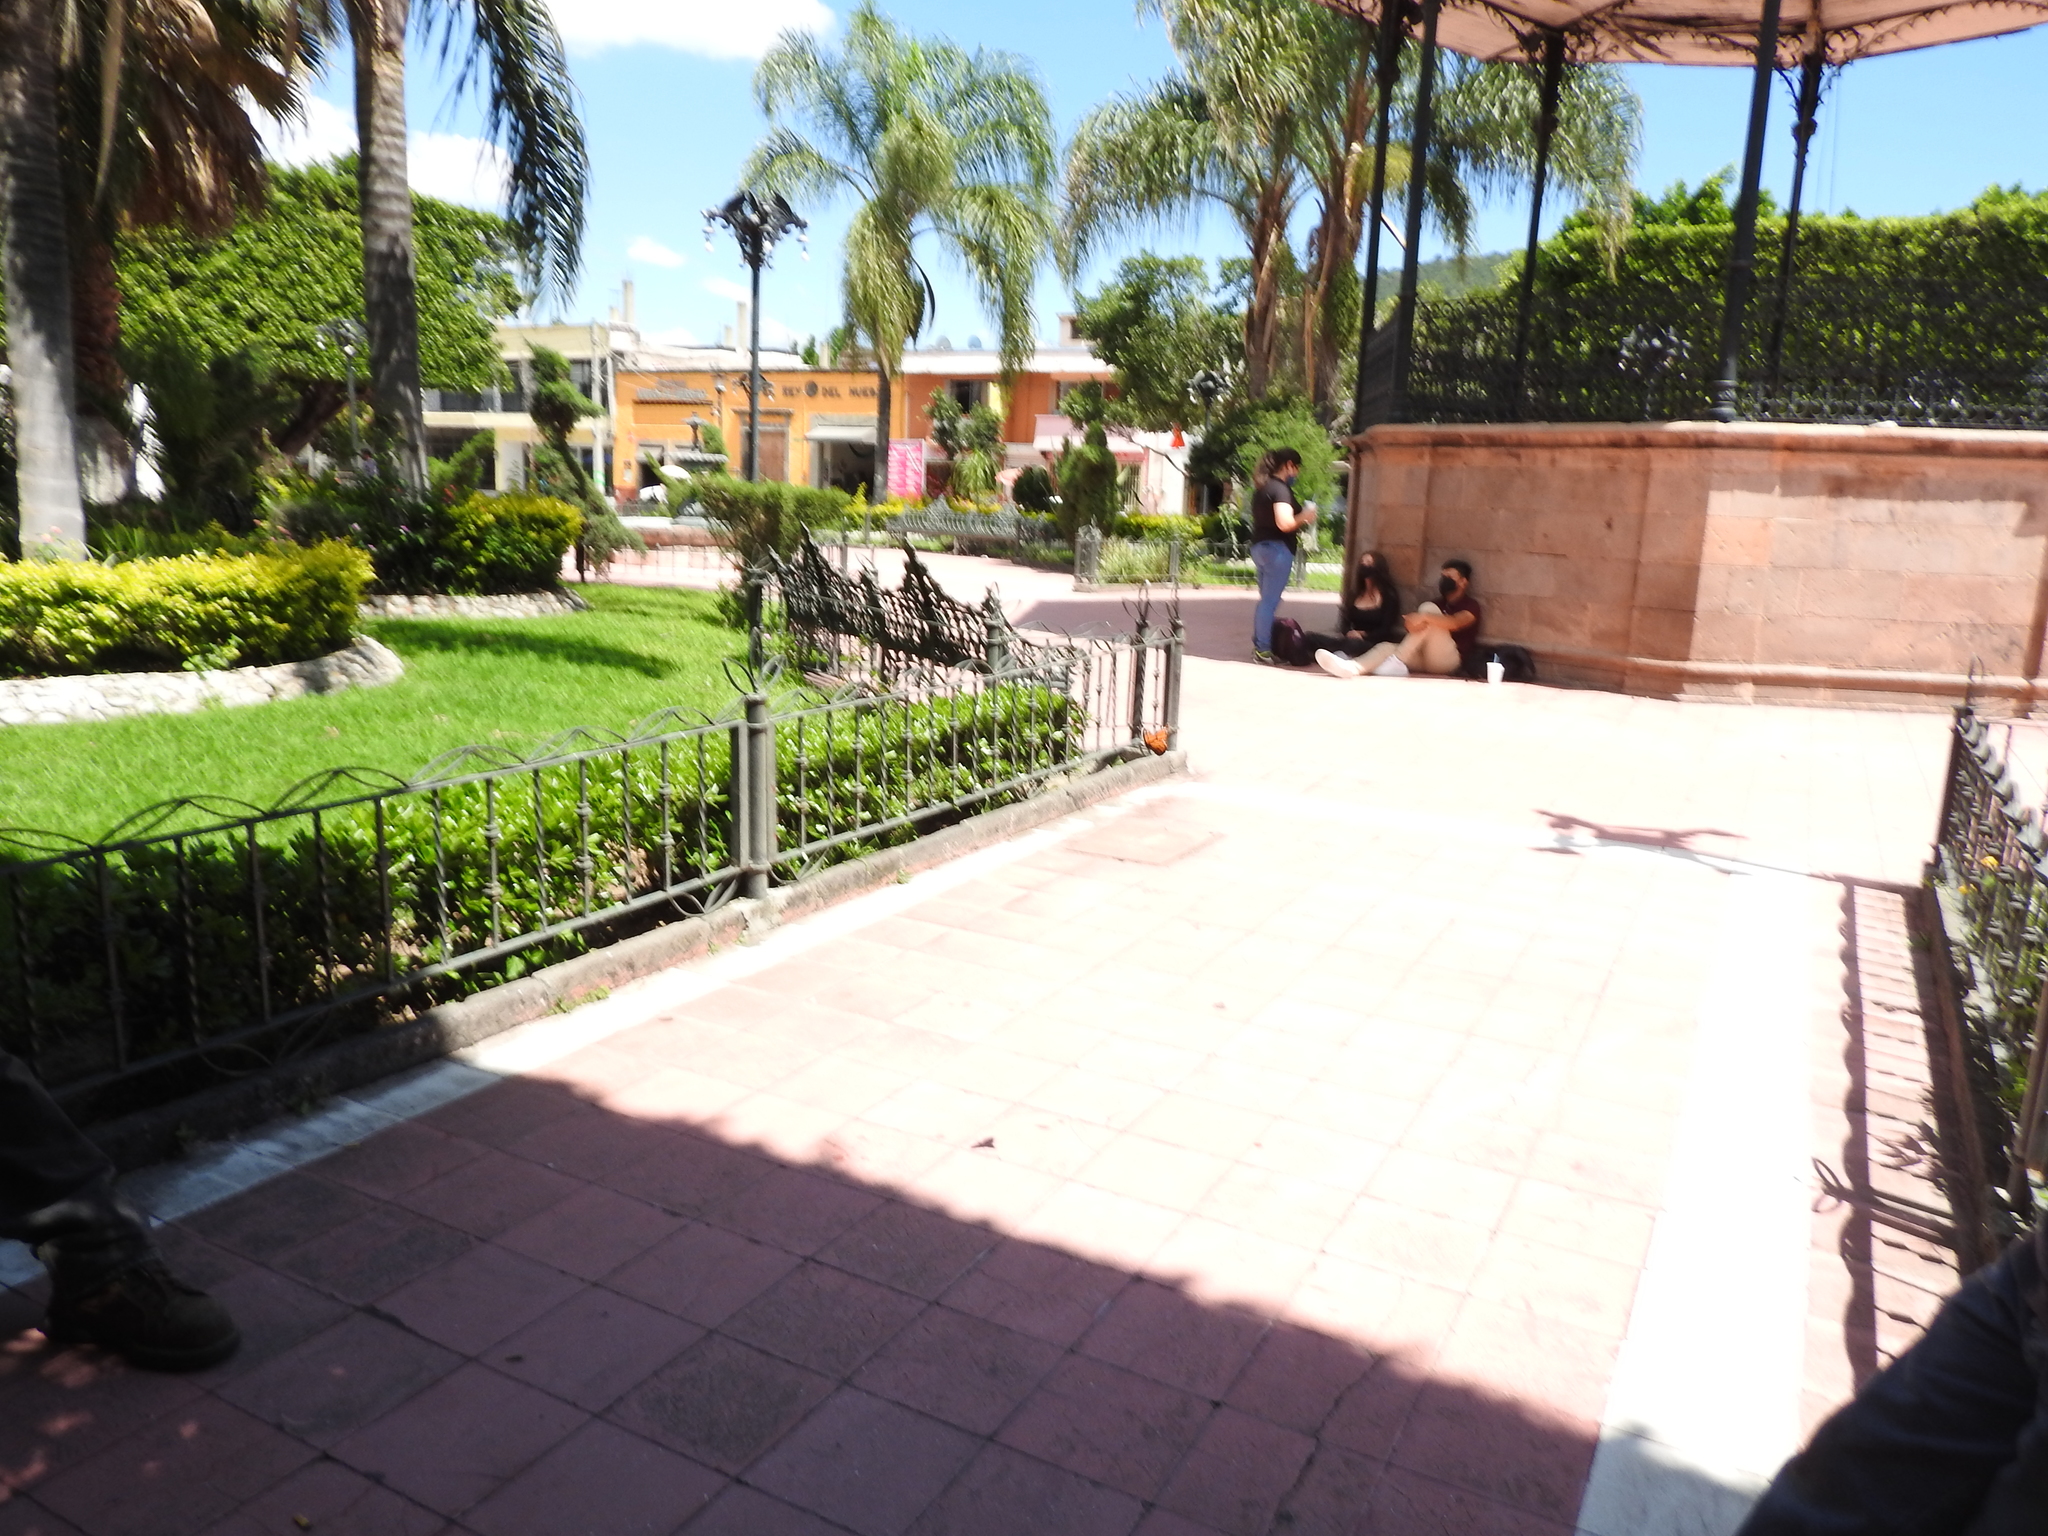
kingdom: Animalia
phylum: Arthropoda
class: Insecta
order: Lepidoptera
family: Nymphalidae
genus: Danaus
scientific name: Danaus plexippus
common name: Monarch
